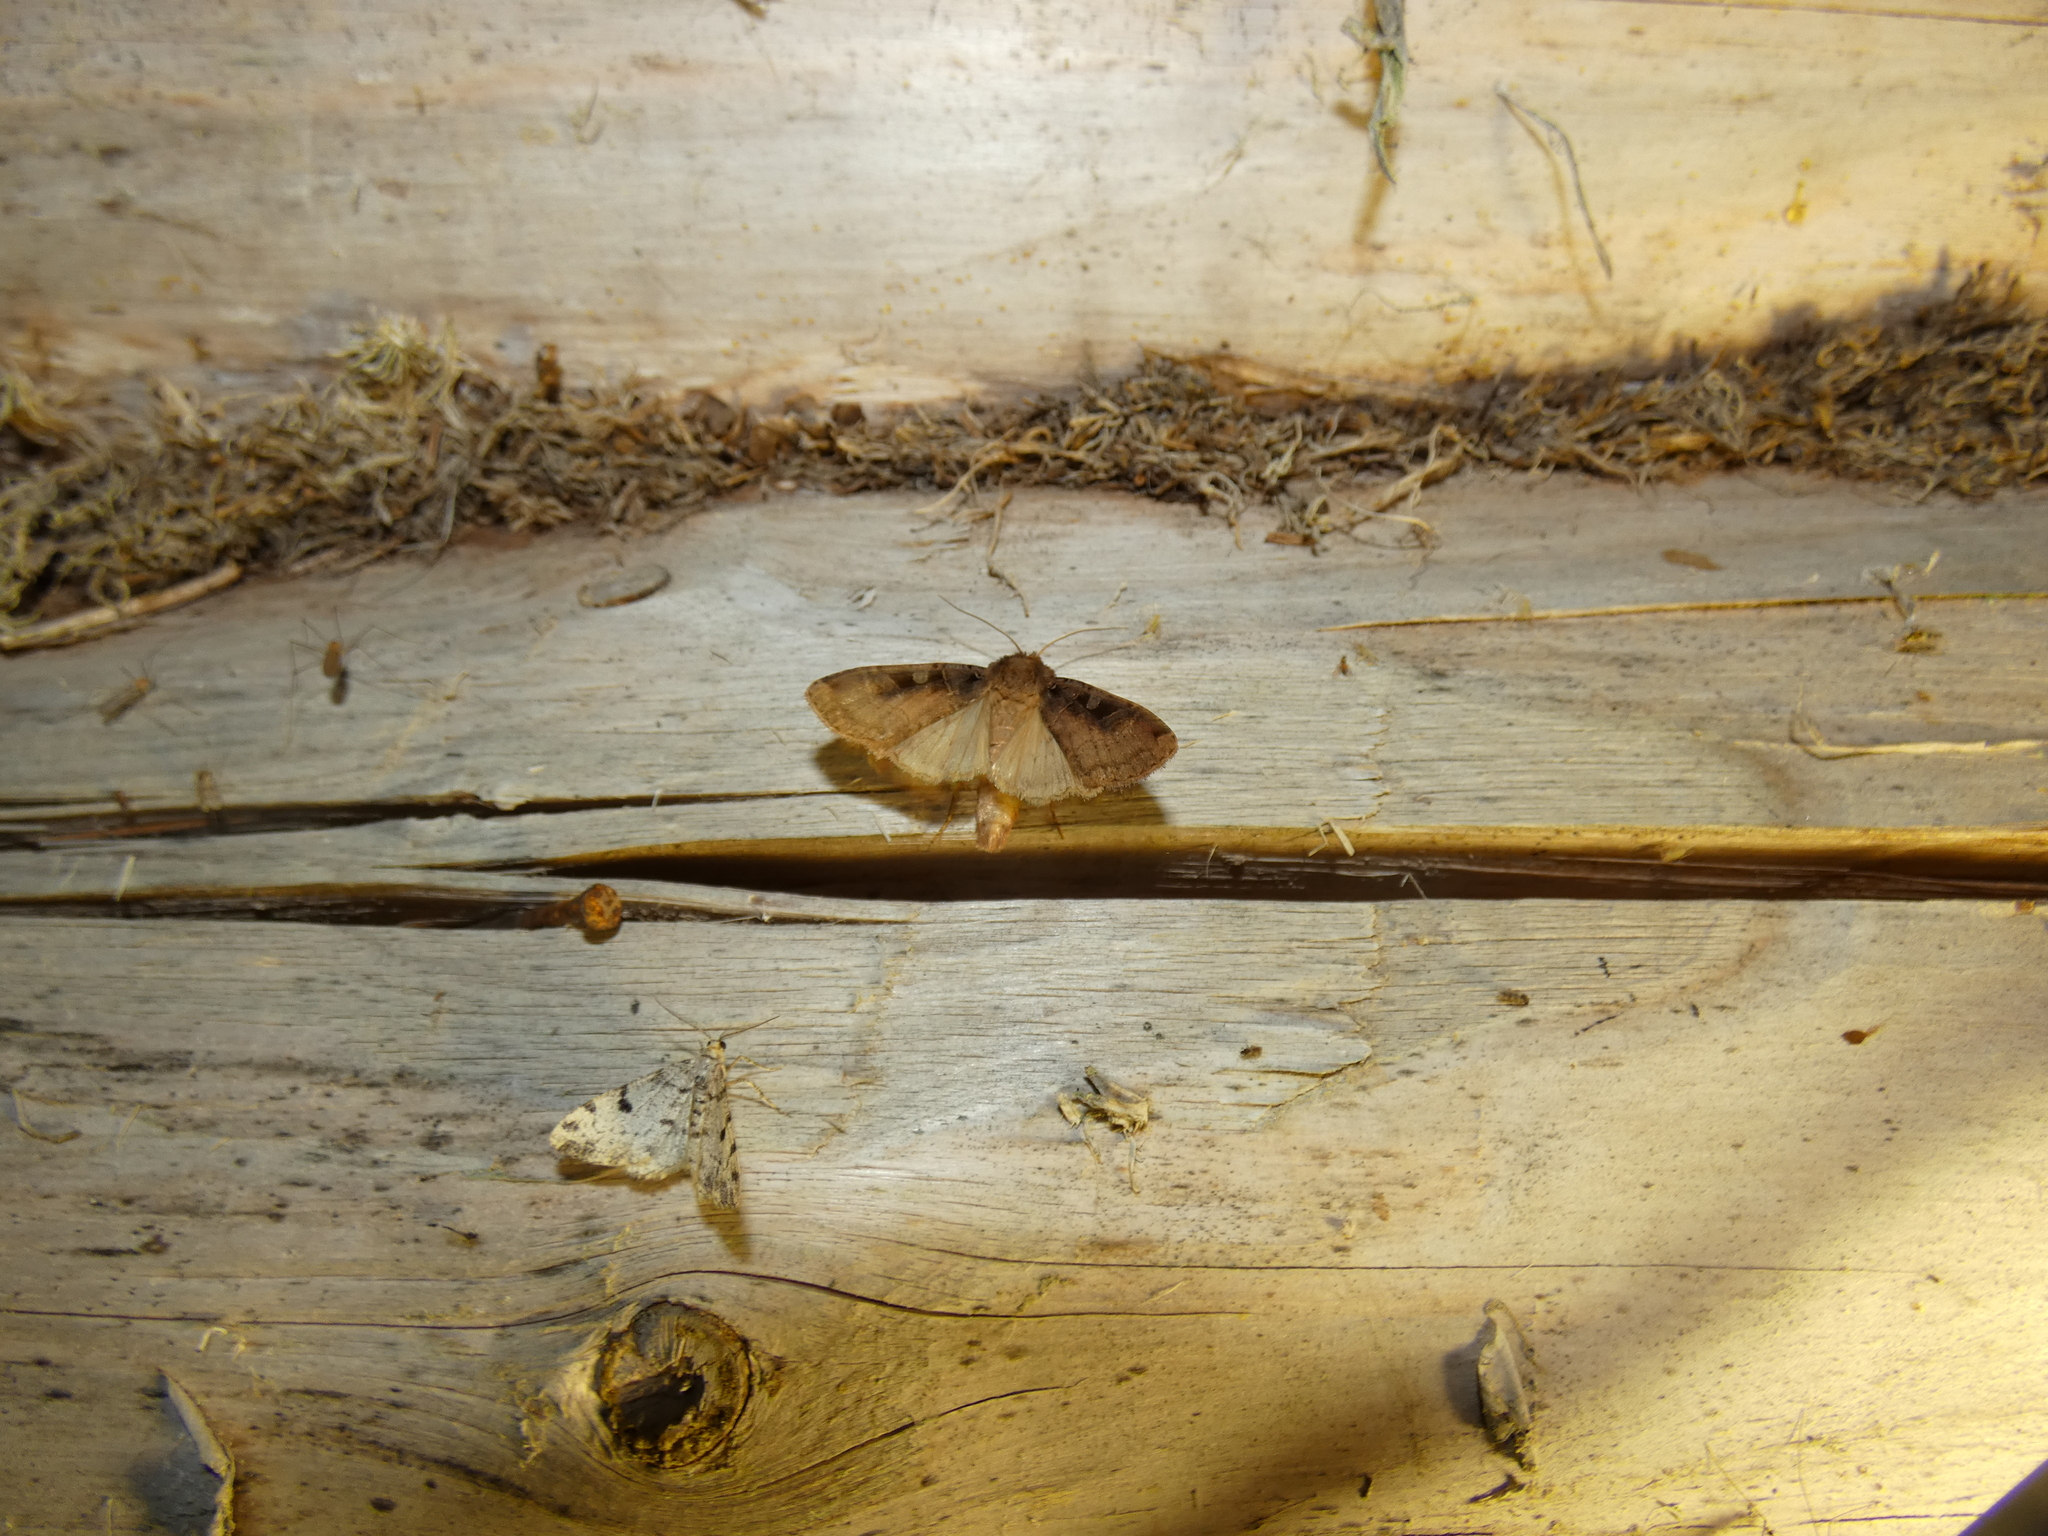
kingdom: Animalia
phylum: Arthropoda
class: Insecta
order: Lepidoptera
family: Noctuidae
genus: Xestia
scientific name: Xestia ditrapezium
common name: Triple-spotted clay
